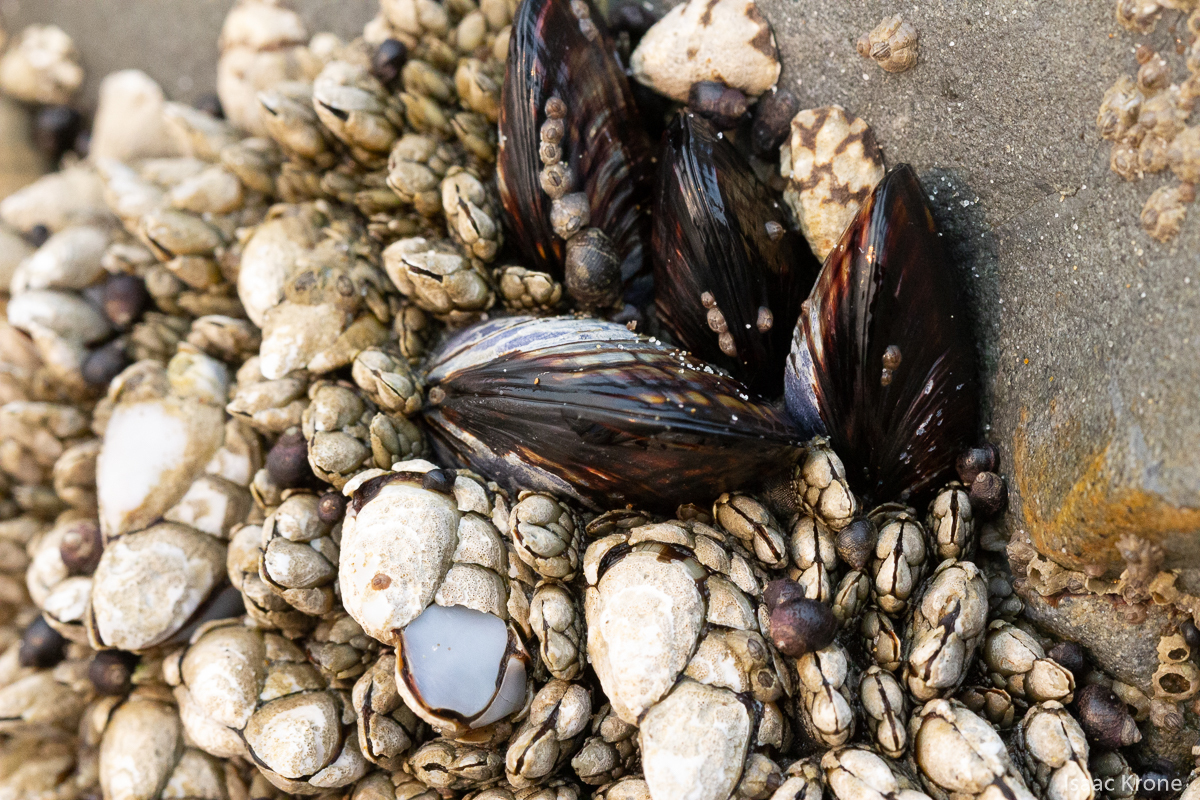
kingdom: Animalia
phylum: Mollusca
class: Bivalvia
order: Mytilida
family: Mytilidae
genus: Mytilus
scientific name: Mytilus californianus
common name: California mussel
